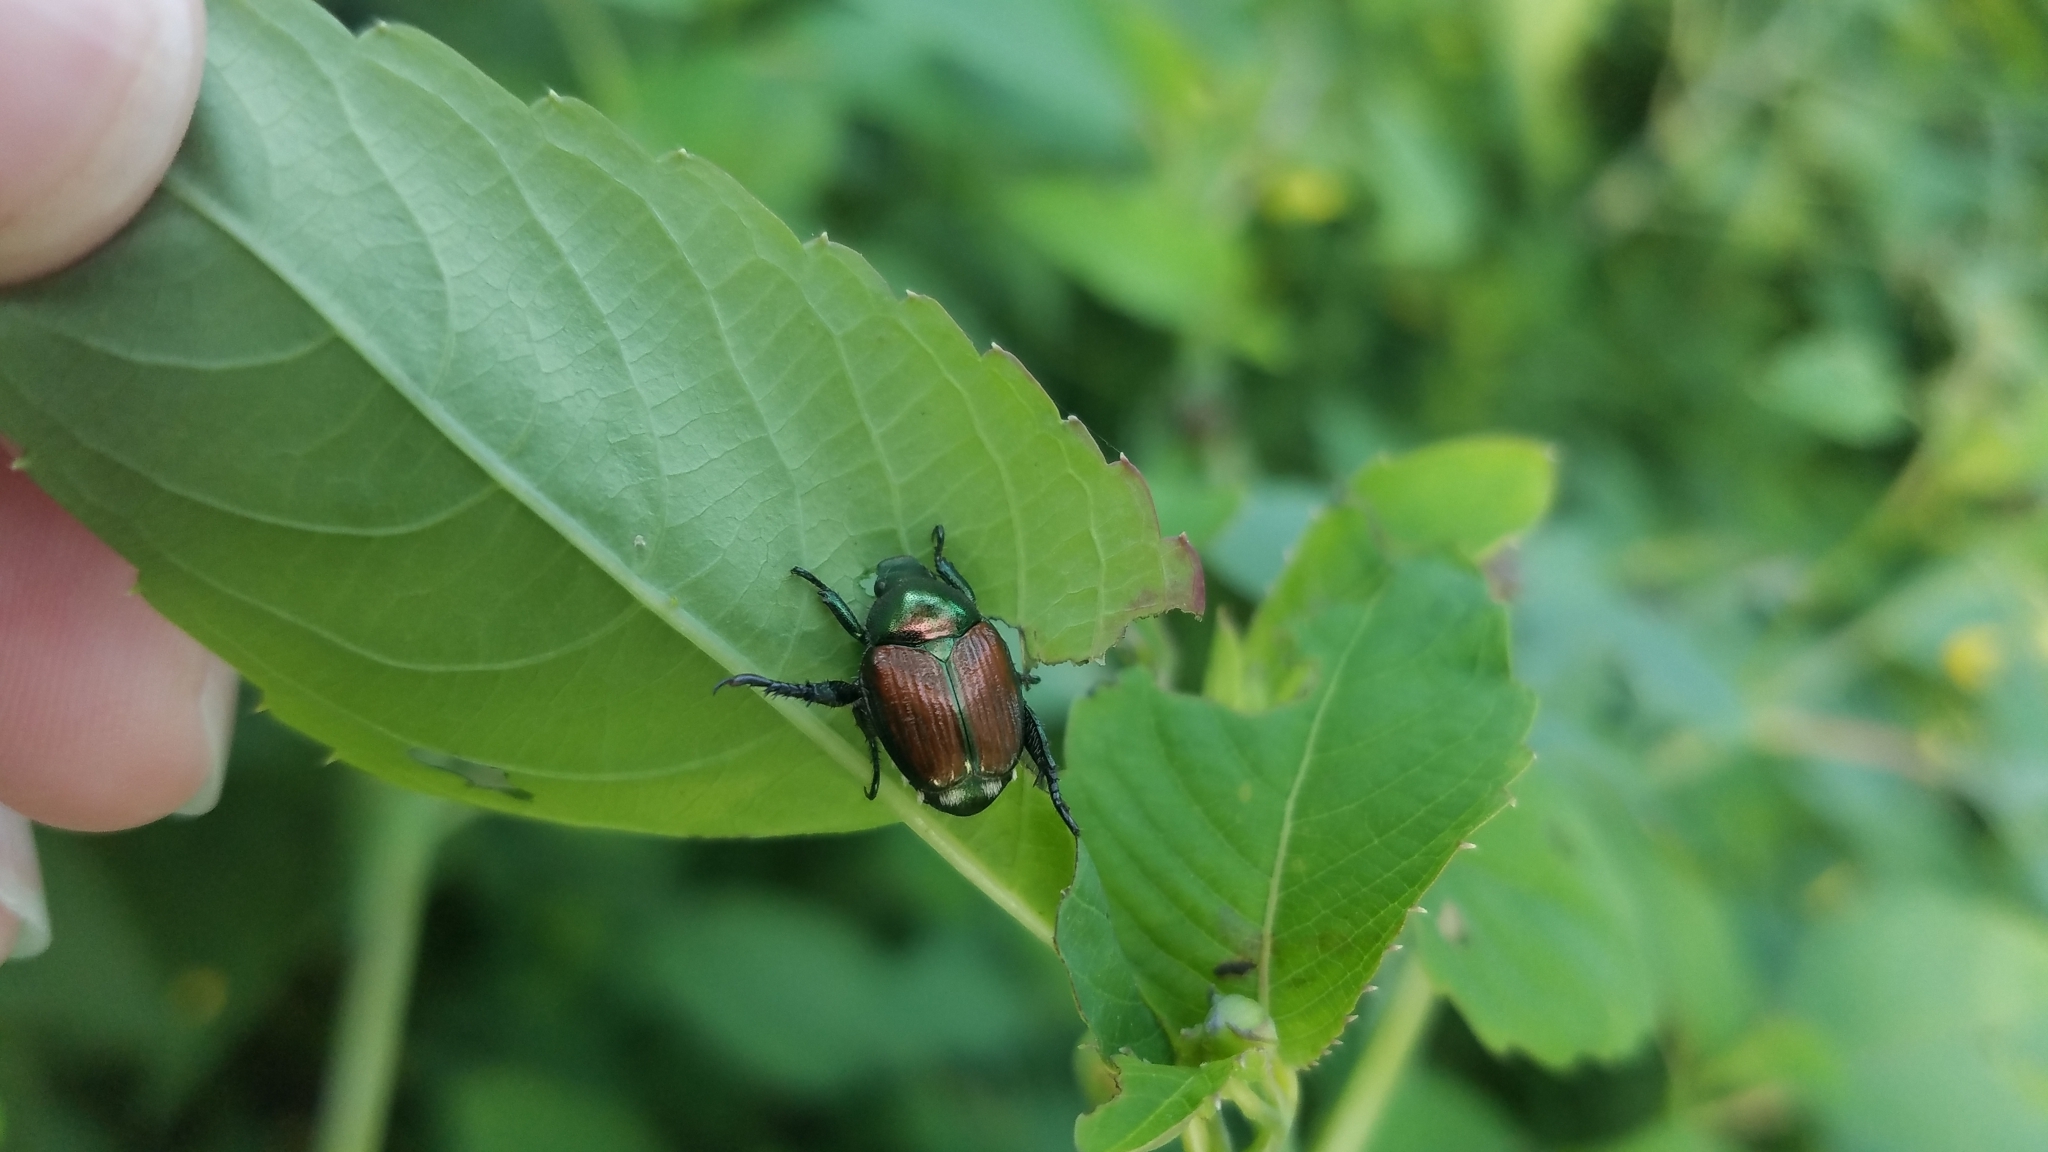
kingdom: Animalia
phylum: Arthropoda
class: Insecta
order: Coleoptera
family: Scarabaeidae
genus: Popillia
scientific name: Popillia japonica
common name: Japanese beetle
